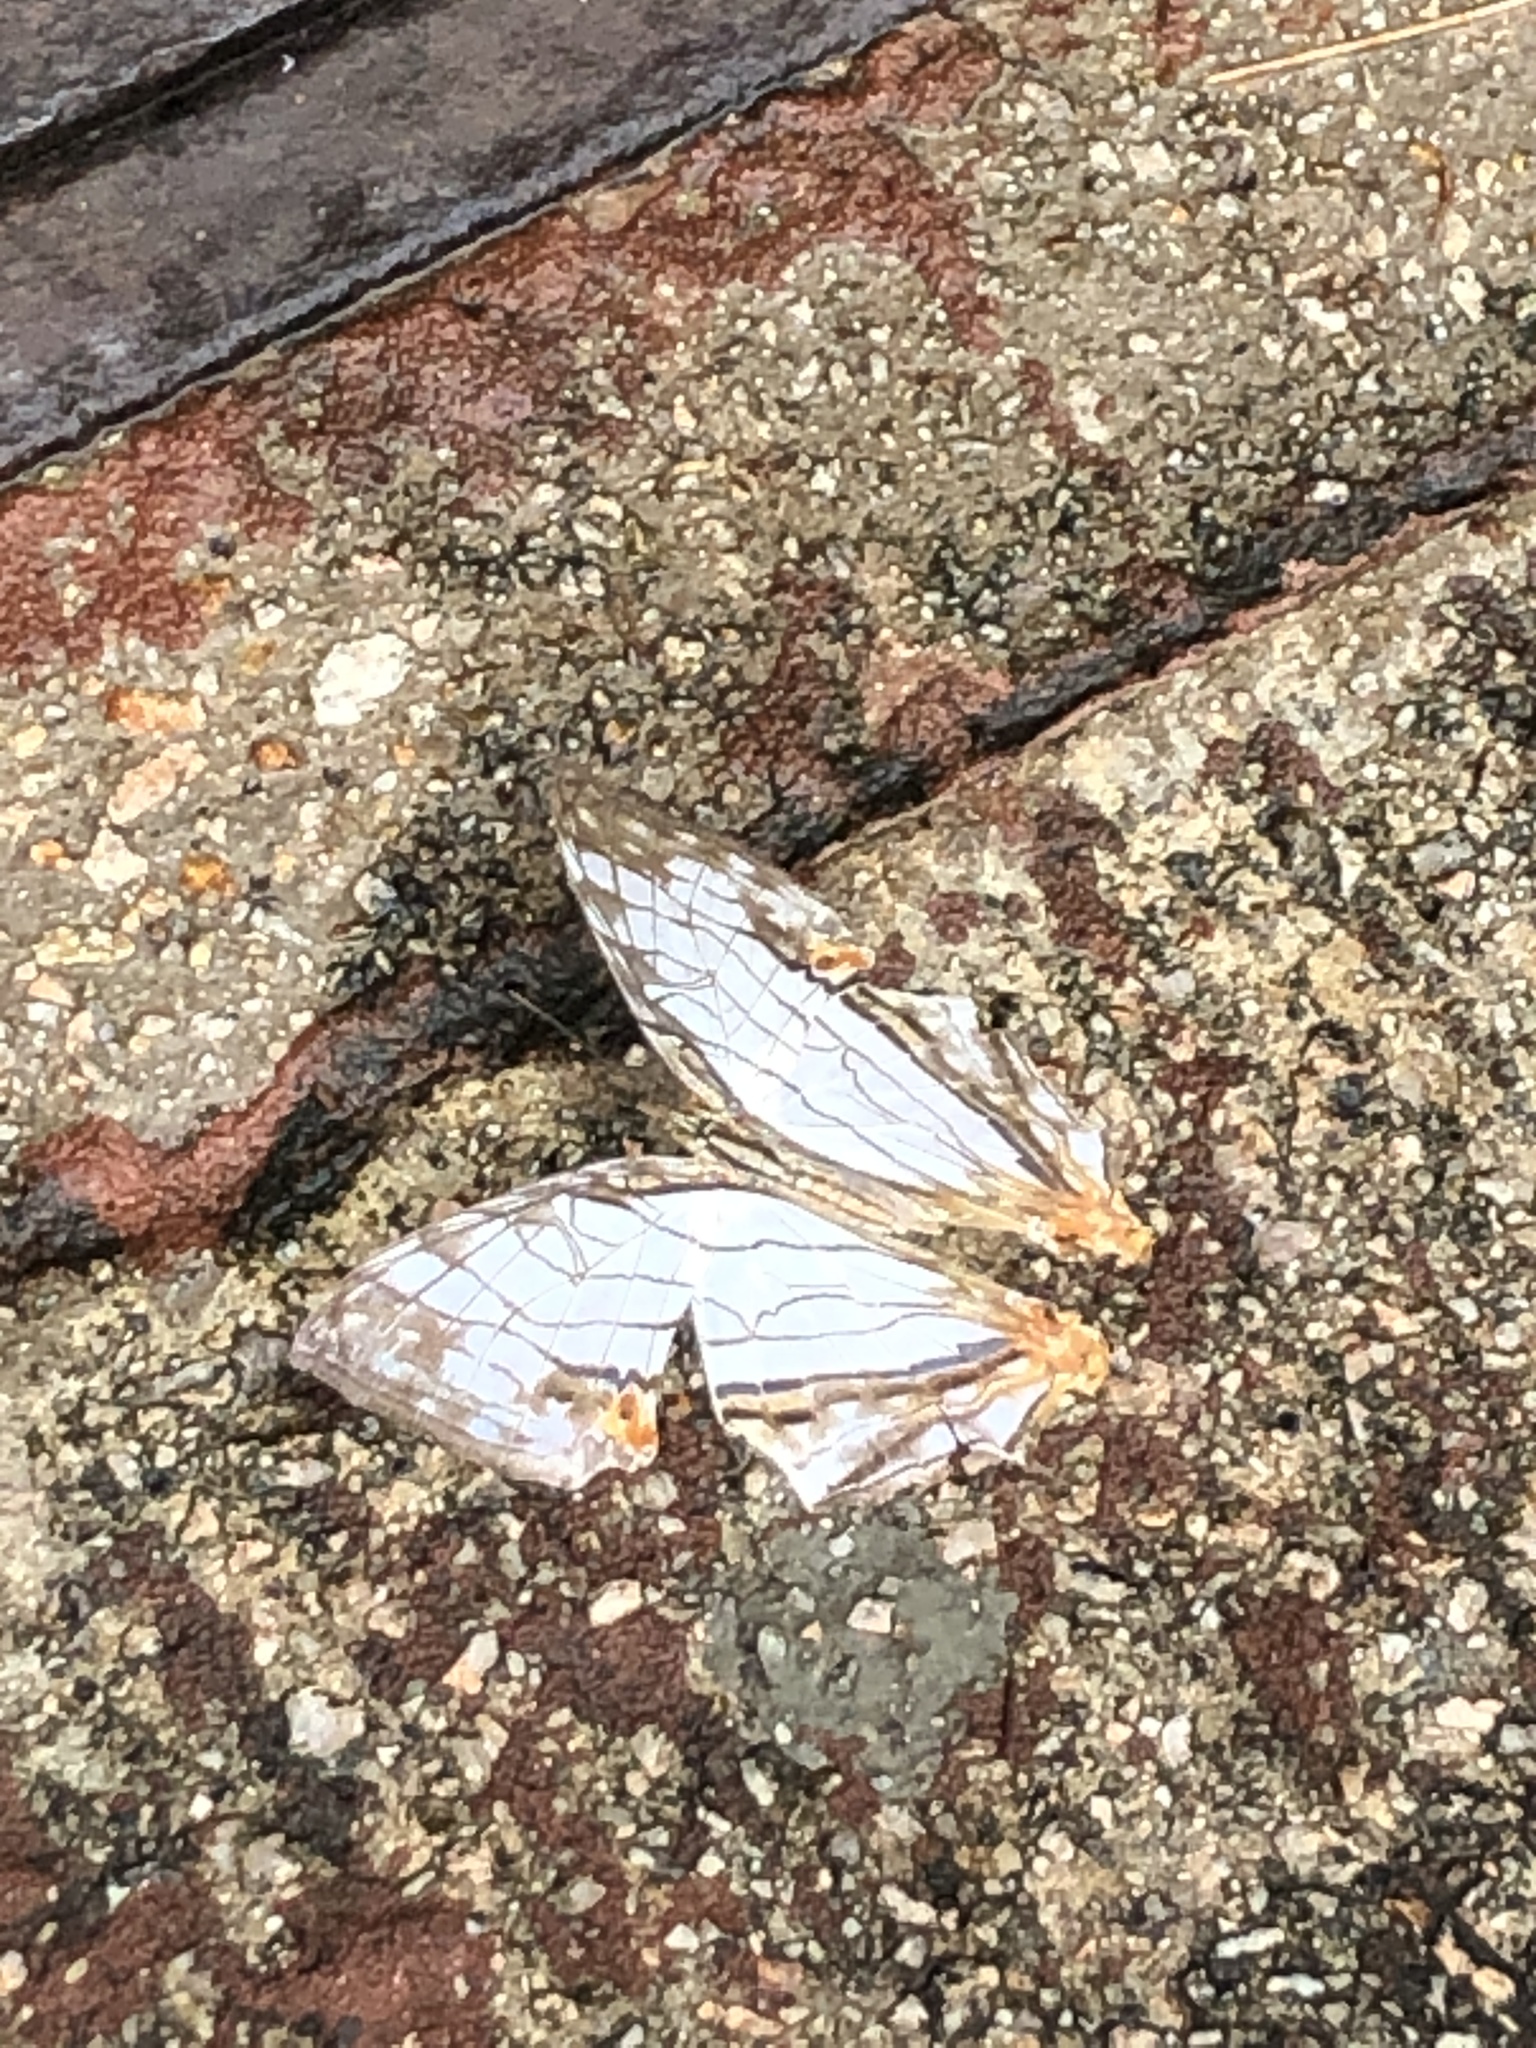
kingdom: Animalia
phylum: Arthropoda
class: Insecta
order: Lepidoptera
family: Nymphalidae
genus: Cyrestis
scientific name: Cyrestis thyodamas
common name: Common mapwing
